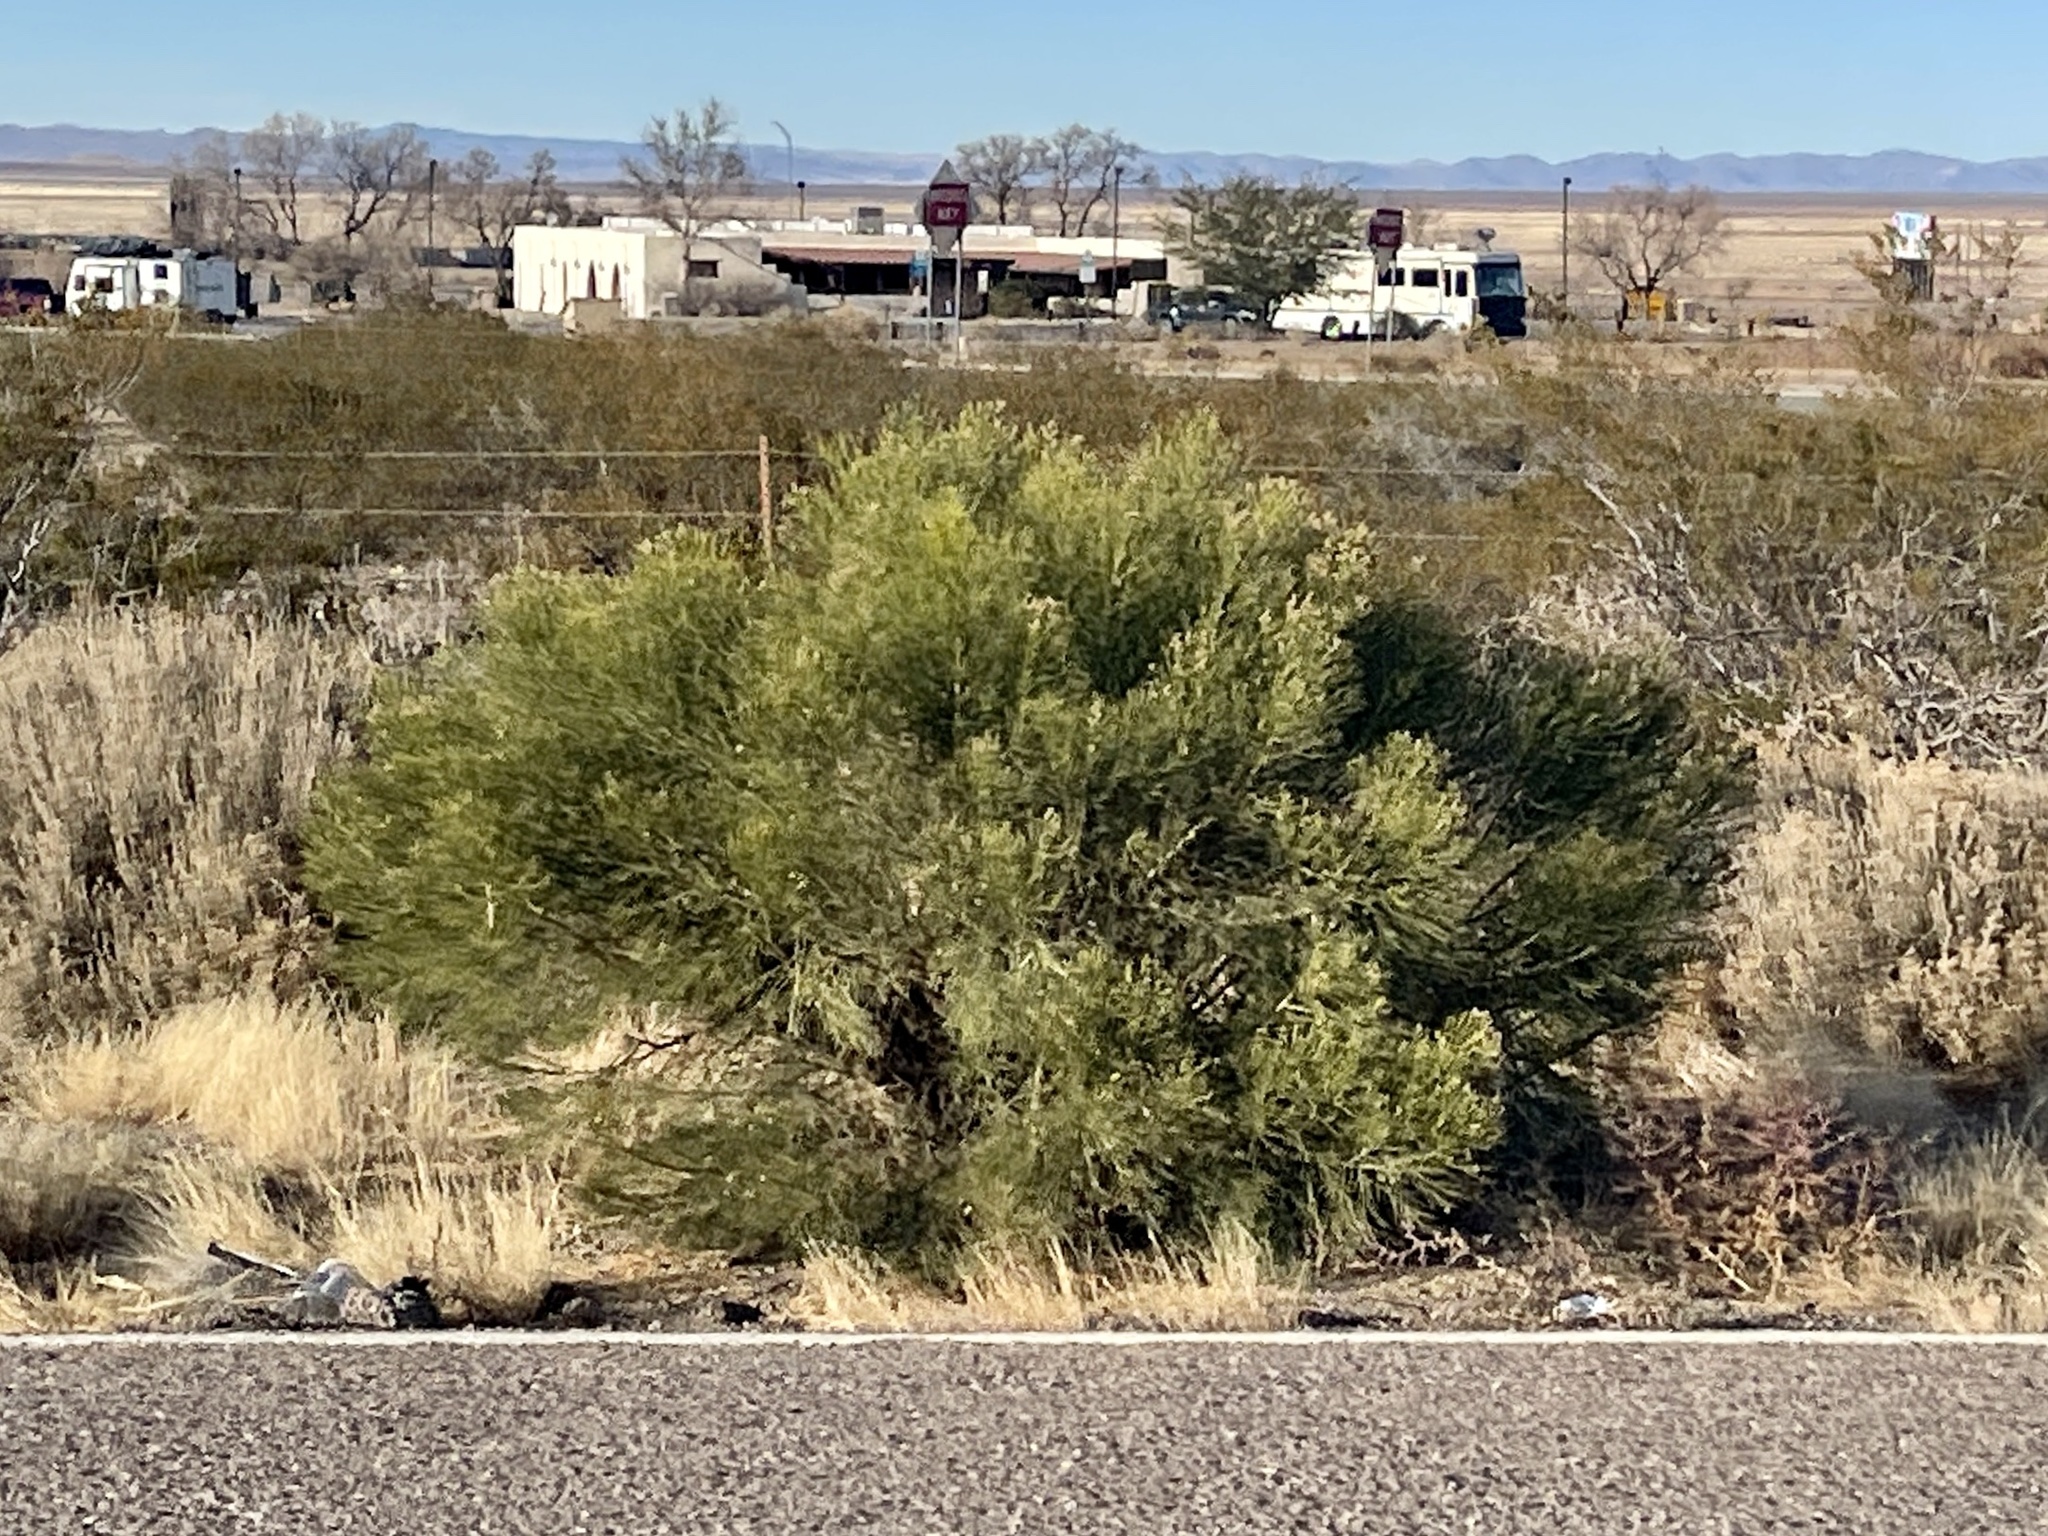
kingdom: Plantae
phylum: Tracheophyta
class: Magnoliopsida
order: Asterales
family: Asteraceae
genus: Baccharis
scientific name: Baccharis sarothroides
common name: Desert-broom
